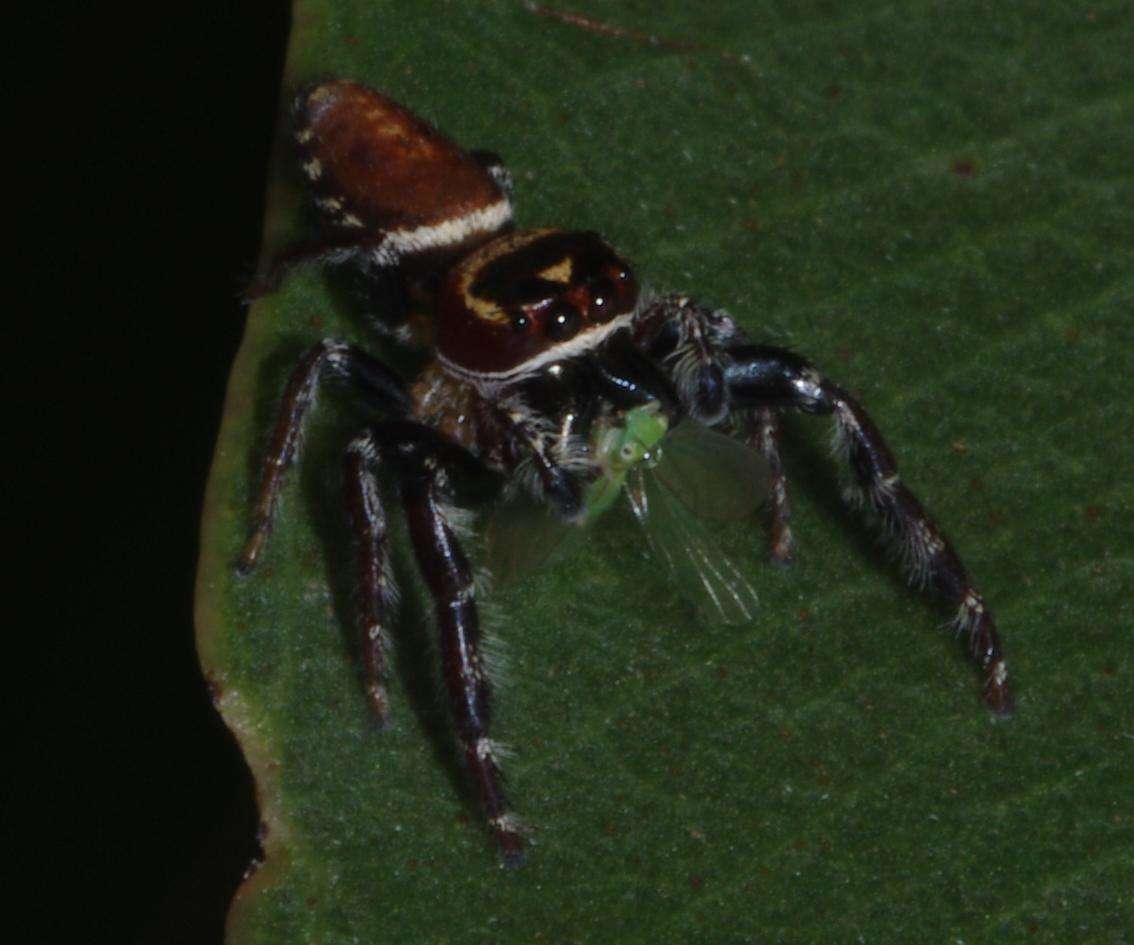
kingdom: Animalia
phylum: Arthropoda
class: Arachnida
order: Araneae
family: Salticidae
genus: Opisthoncus
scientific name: Opisthoncus nigrofemoratus
